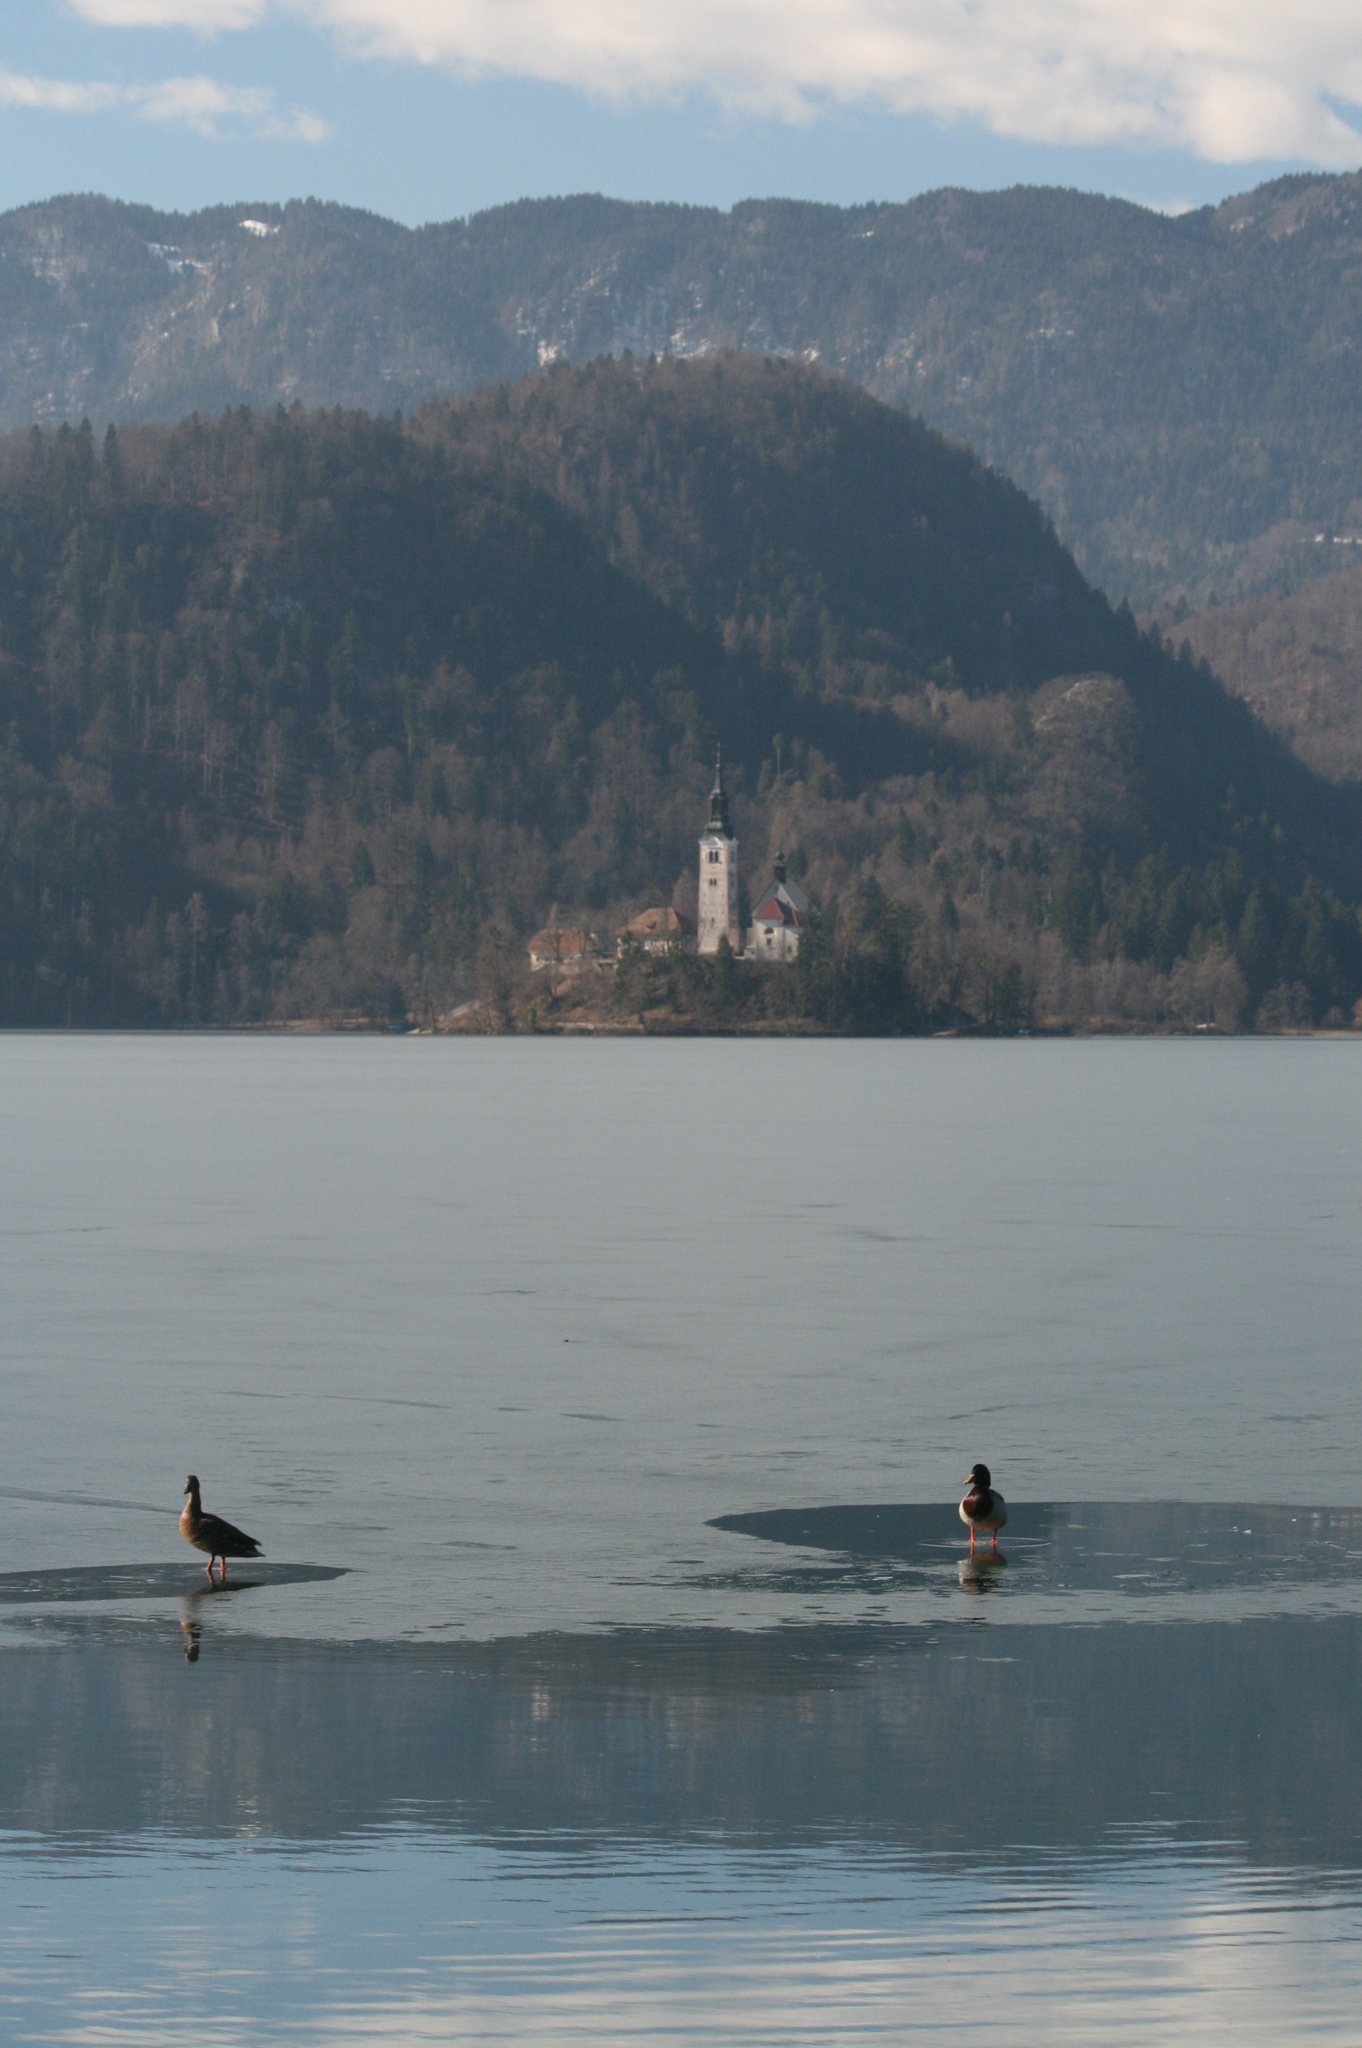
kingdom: Animalia
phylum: Chordata
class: Aves
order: Anseriformes
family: Anatidae
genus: Anas
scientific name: Anas platyrhynchos
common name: Mallard
